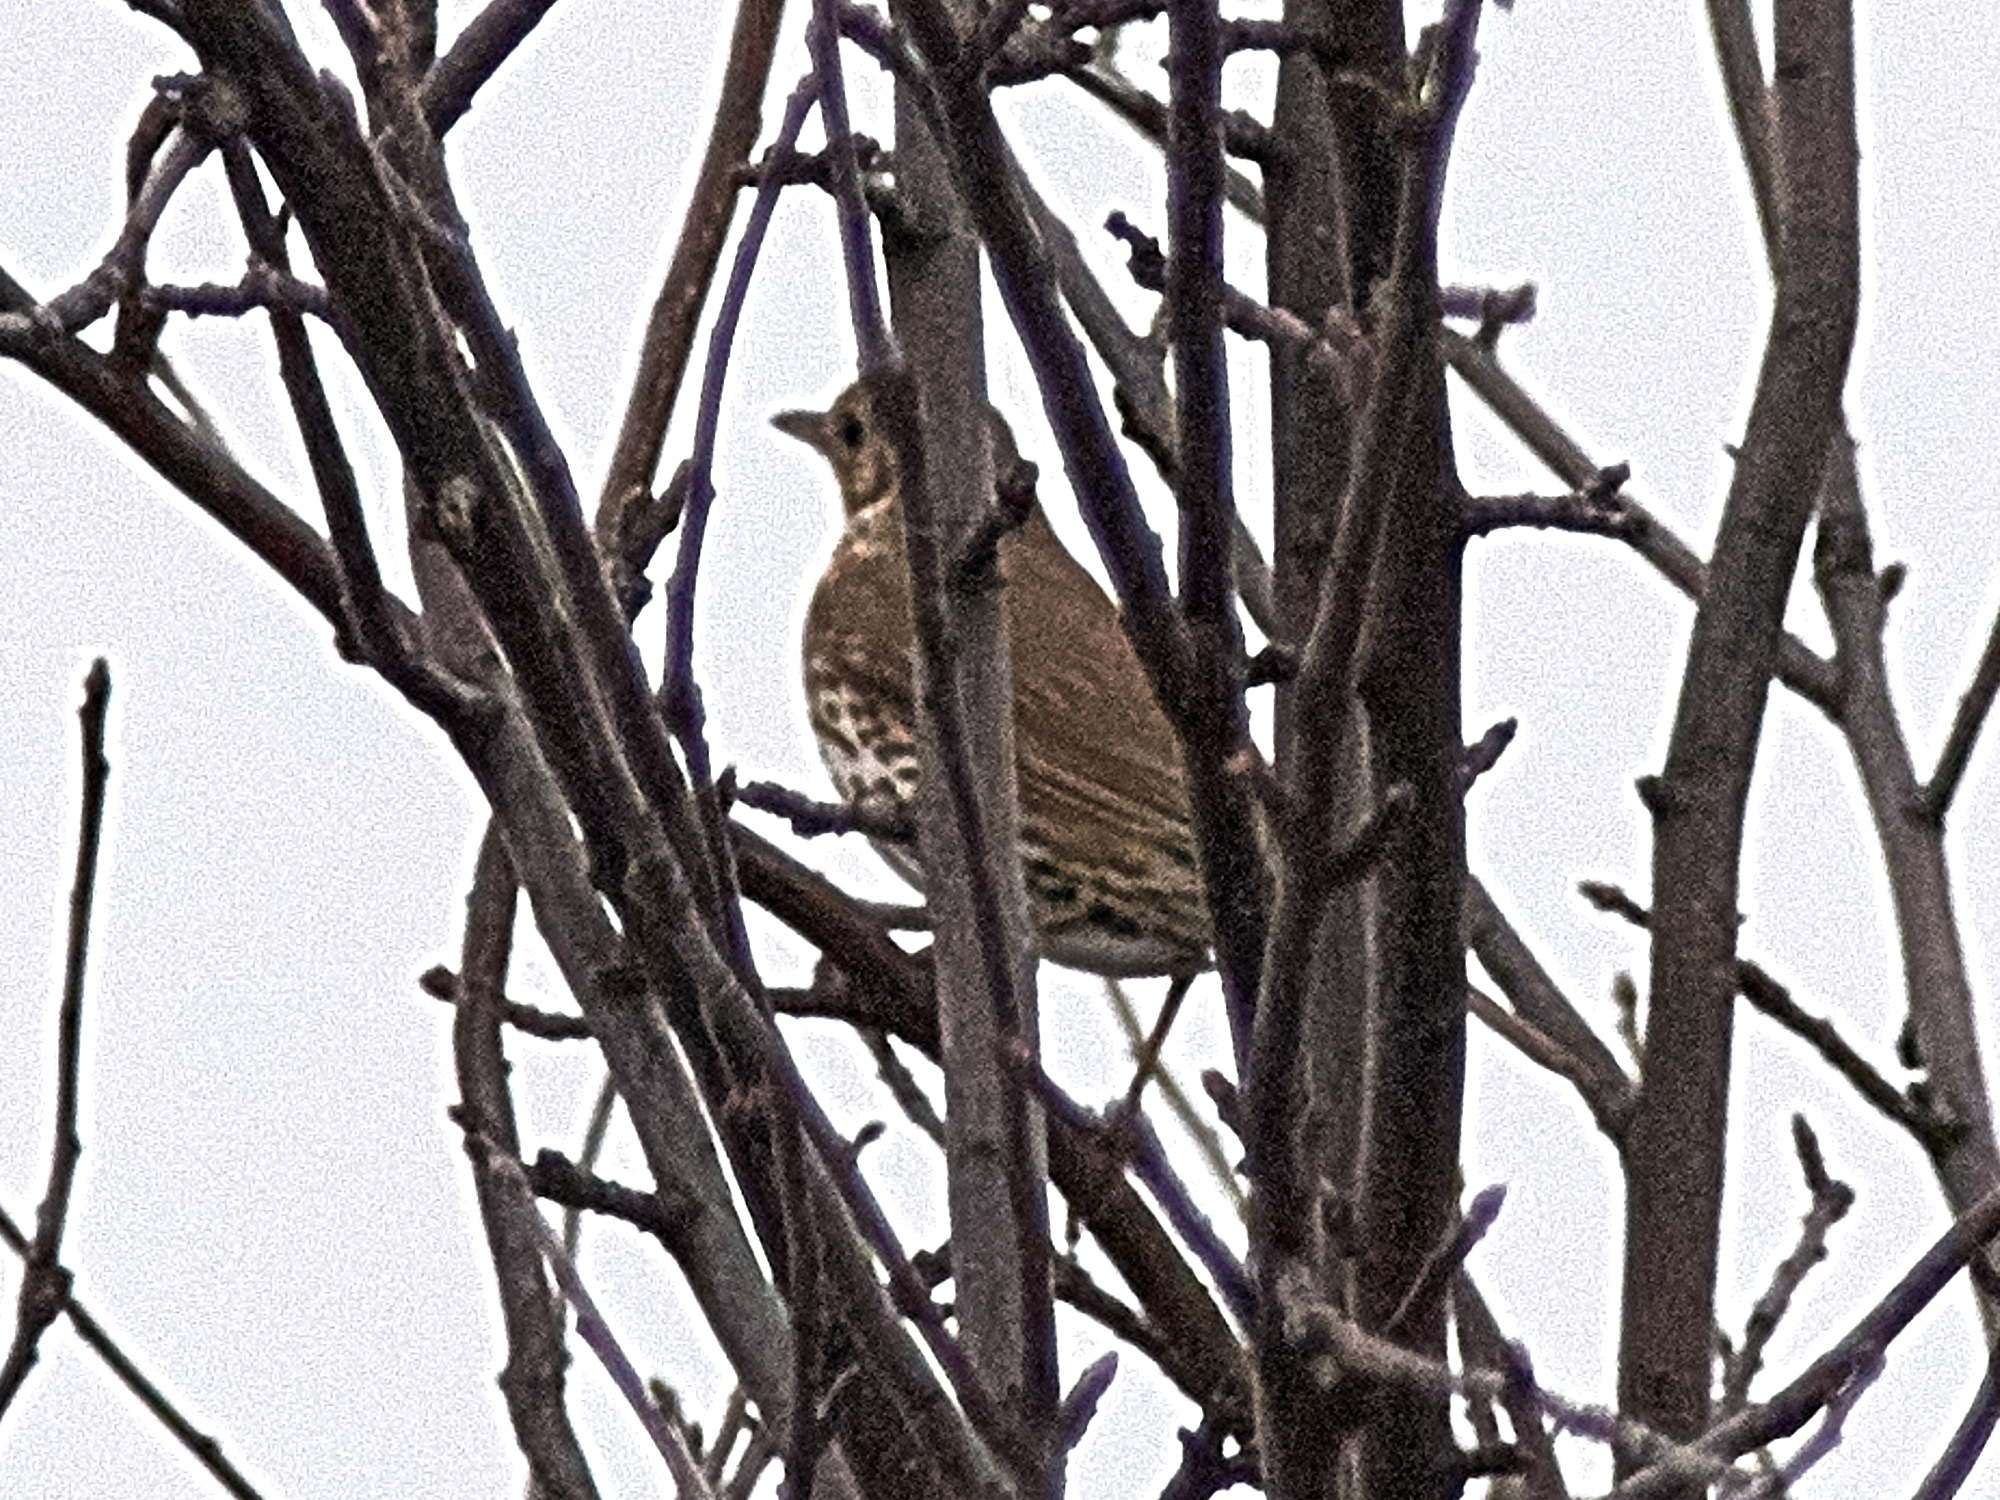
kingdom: Animalia
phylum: Chordata
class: Aves
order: Passeriformes
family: Turdidae
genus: Turdus
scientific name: Turdus philomelos
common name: Song thrush
